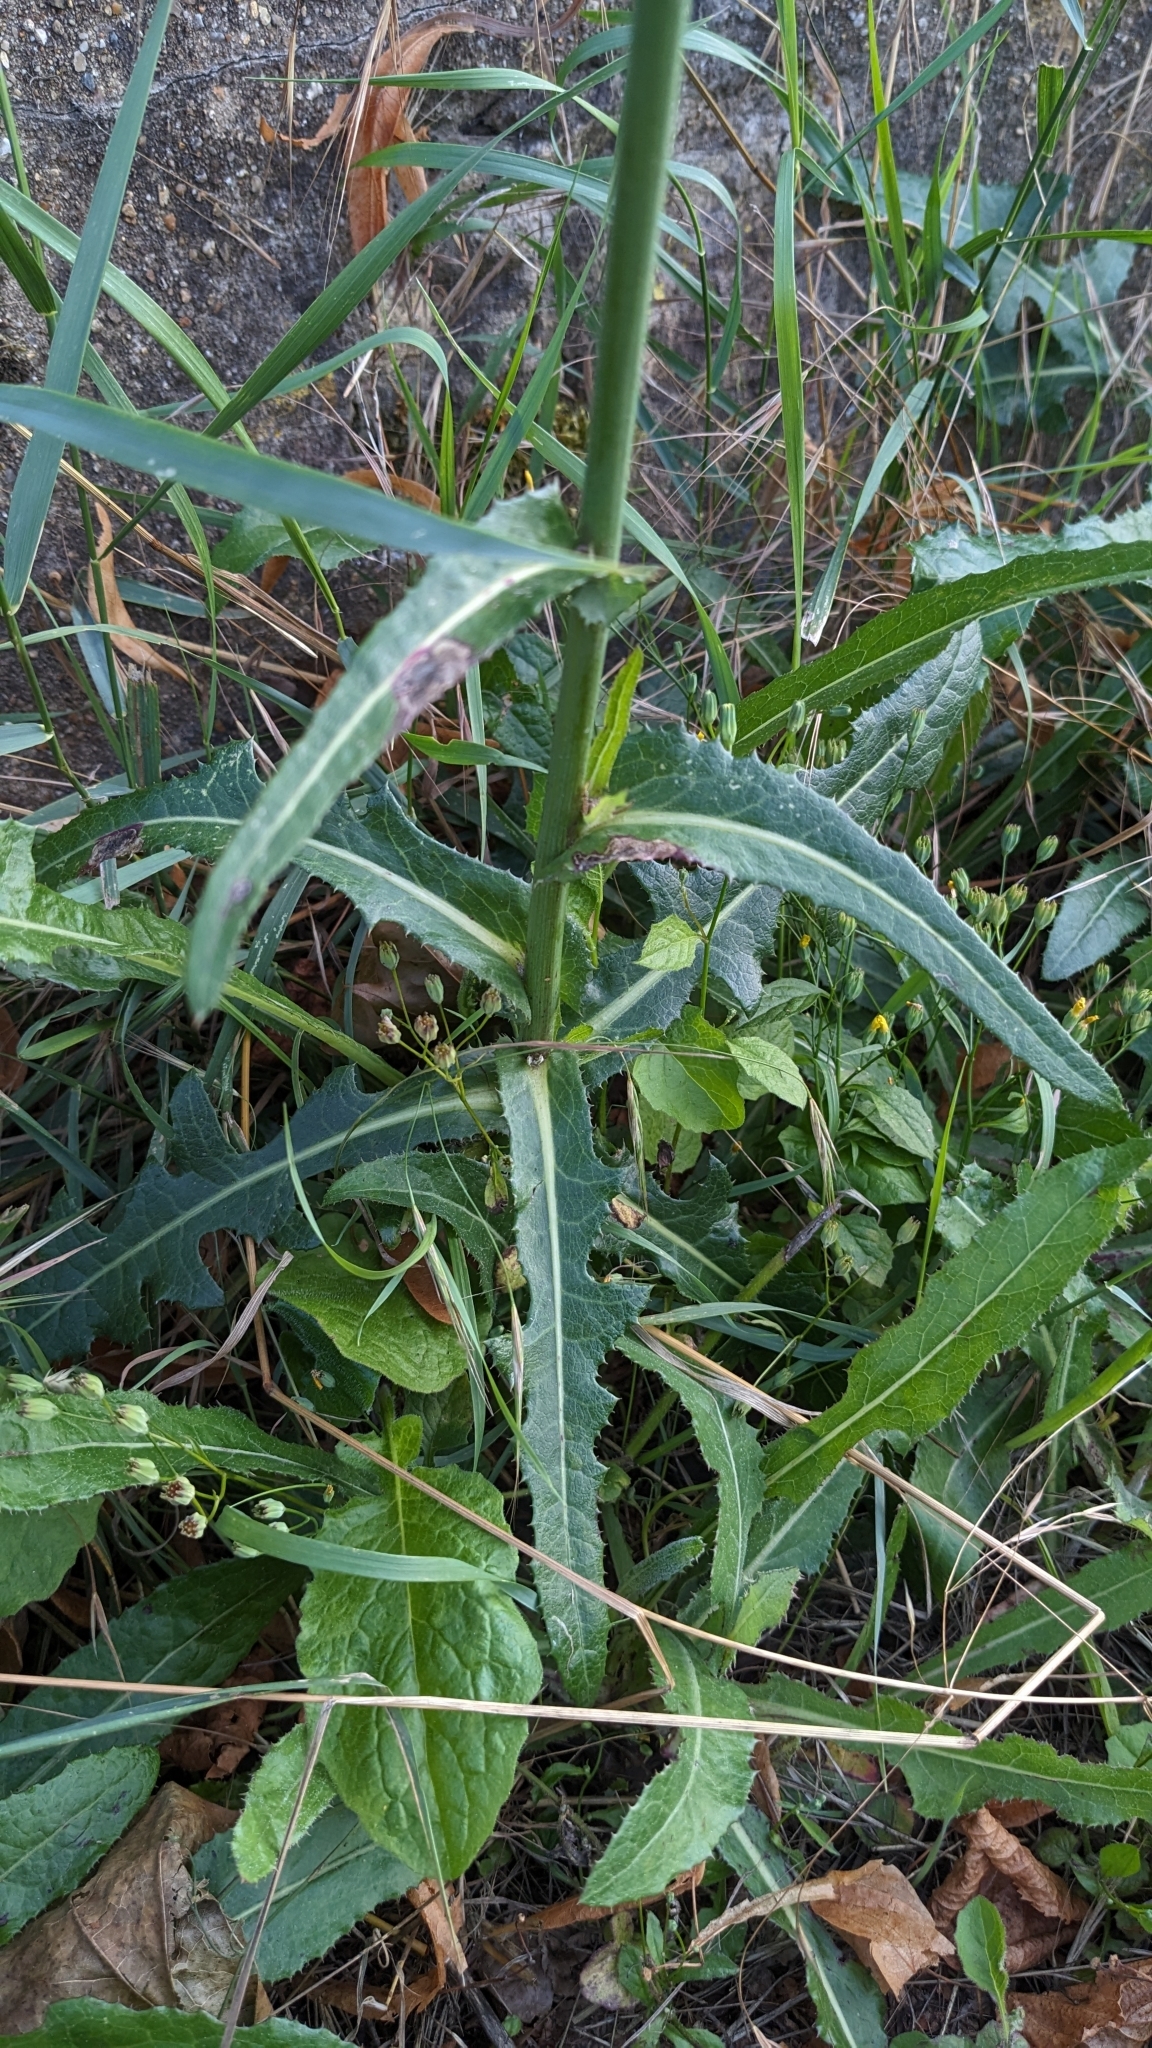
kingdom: Plantae
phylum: Tracheophyta
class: Magnoliopsida
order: Asterales
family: Asteraceae
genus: Sonchus
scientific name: Sonchus arvensis
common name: Perennial sow-thistle
